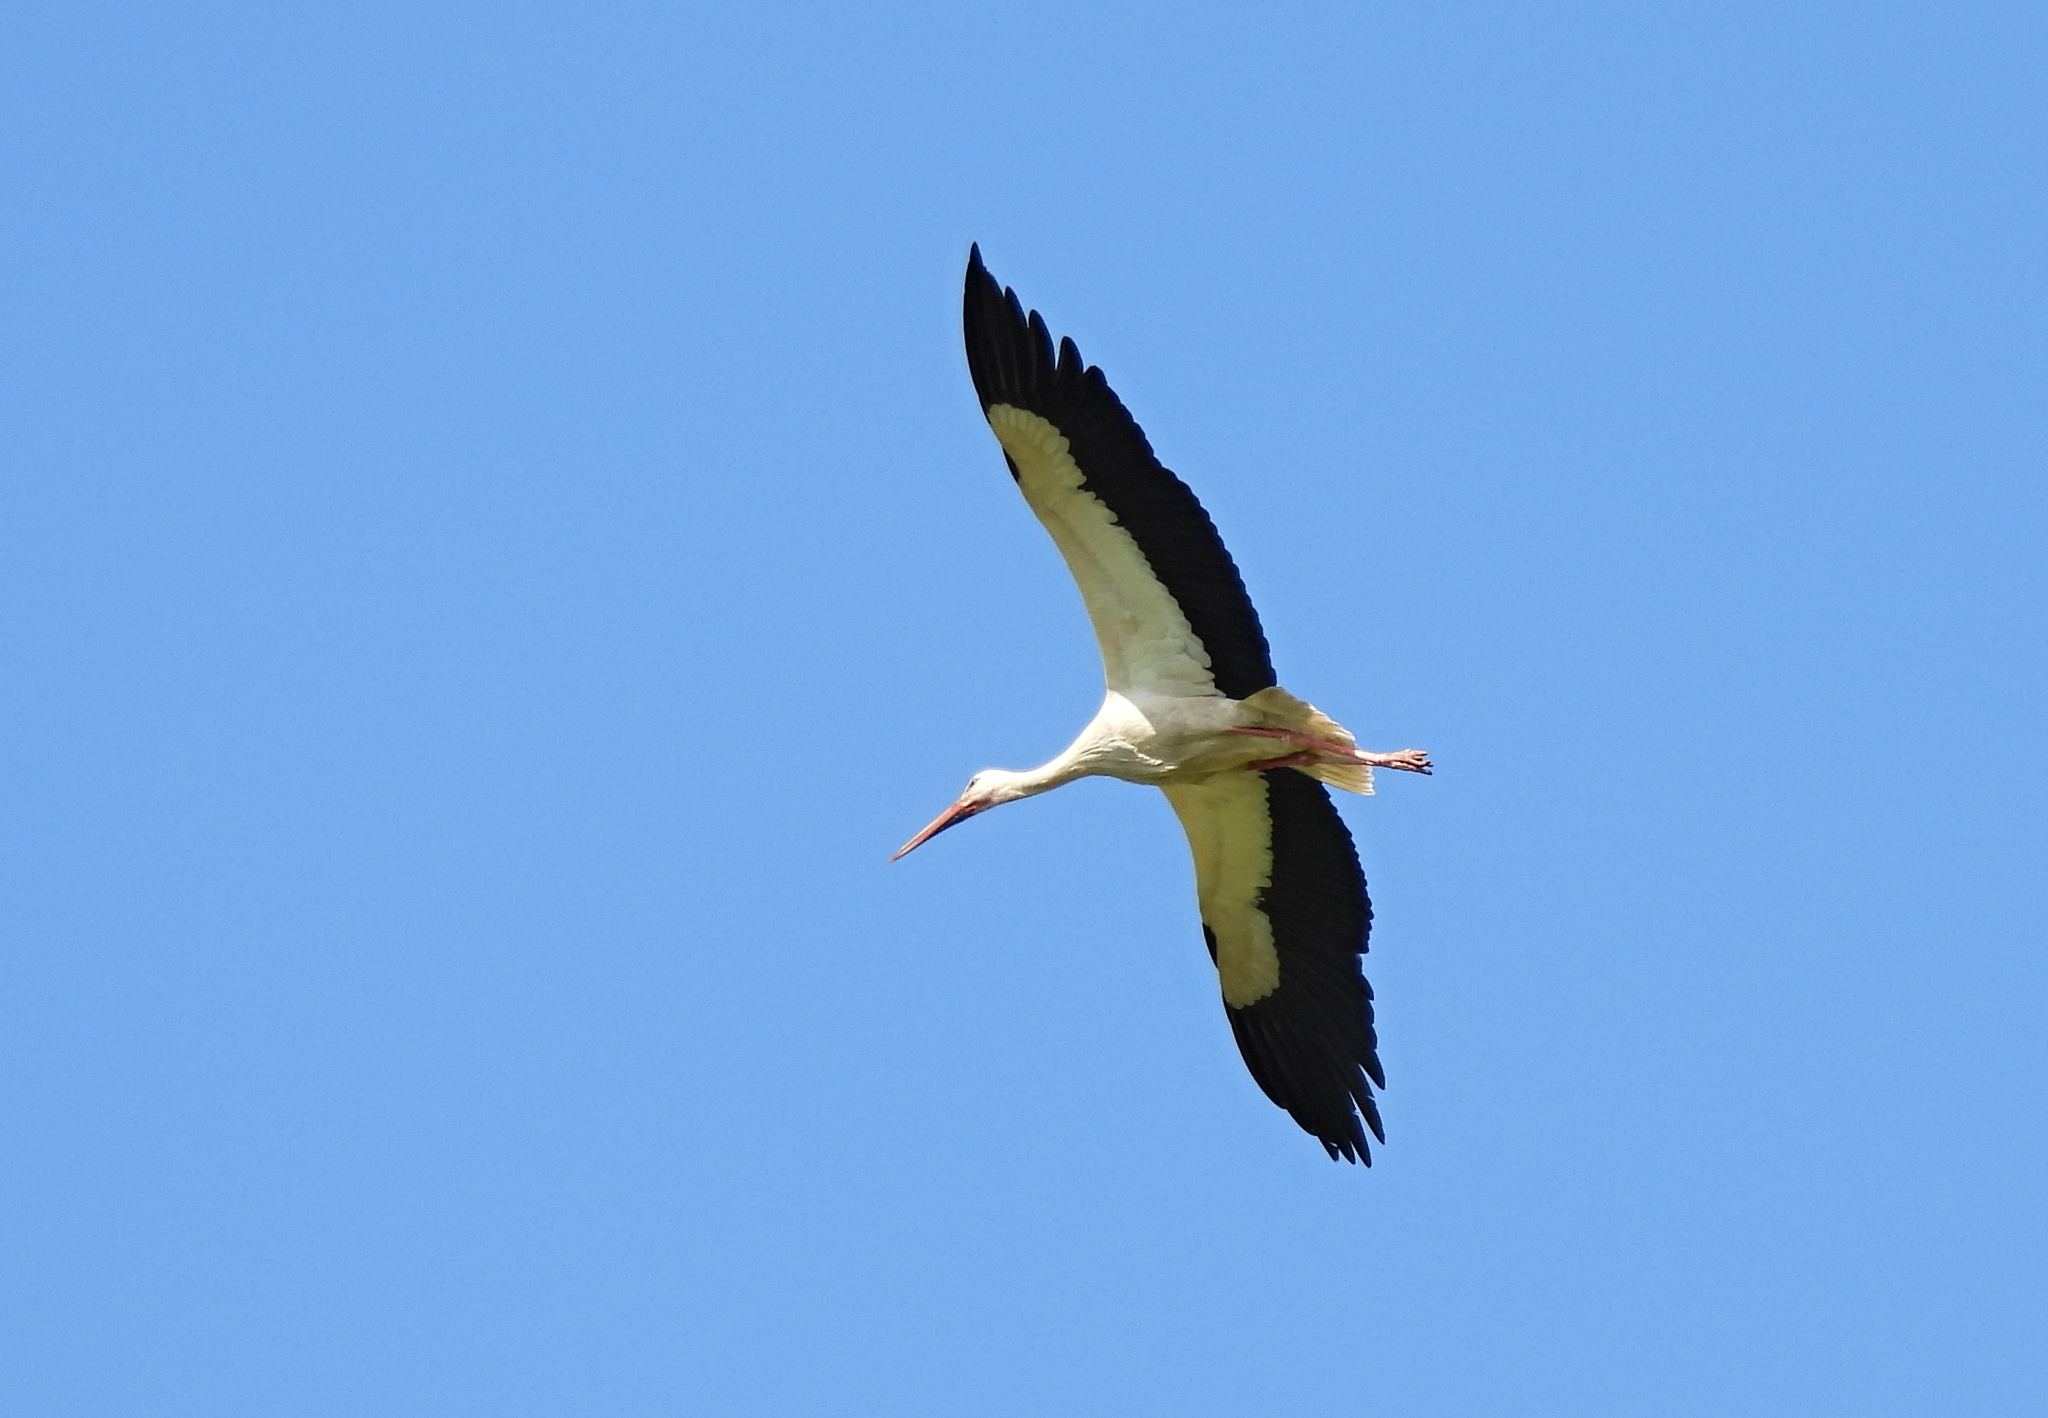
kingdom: Animalia
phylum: Chordata
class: Aves
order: Ciconiiformes
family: Ciconiidae
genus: Ciconia
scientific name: Ciconia ciconia
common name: White stork
